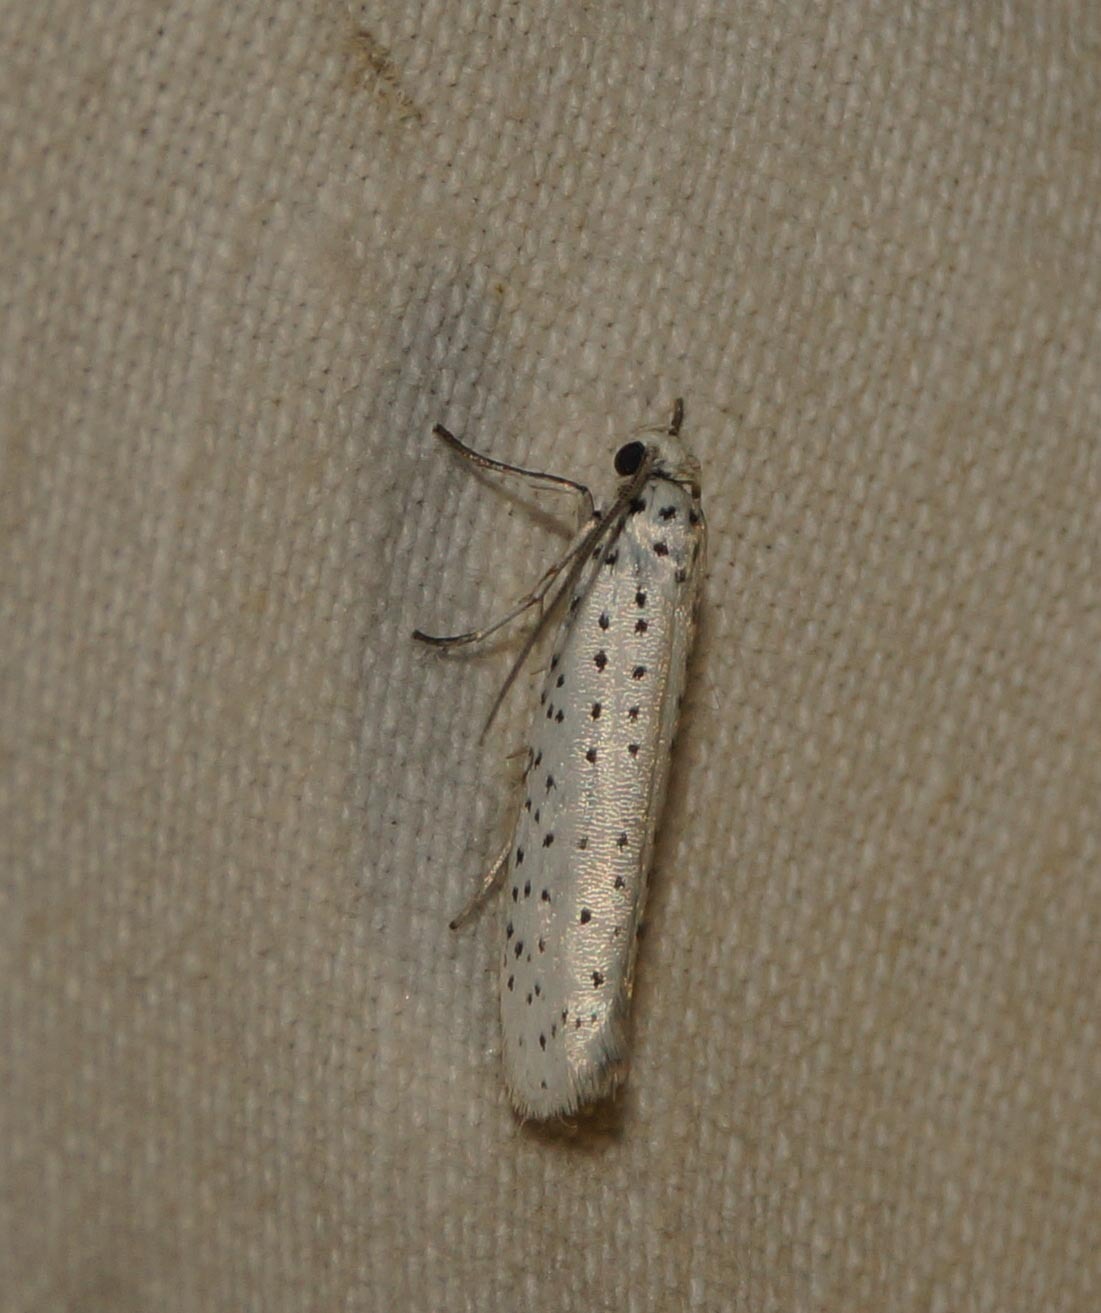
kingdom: Animalia
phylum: Arthropoda
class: Insecta
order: Lepidoptera
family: Yponomeutidae
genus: Yponomeuta
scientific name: Yponomeuta evonymella
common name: Bird-cherry ermine
